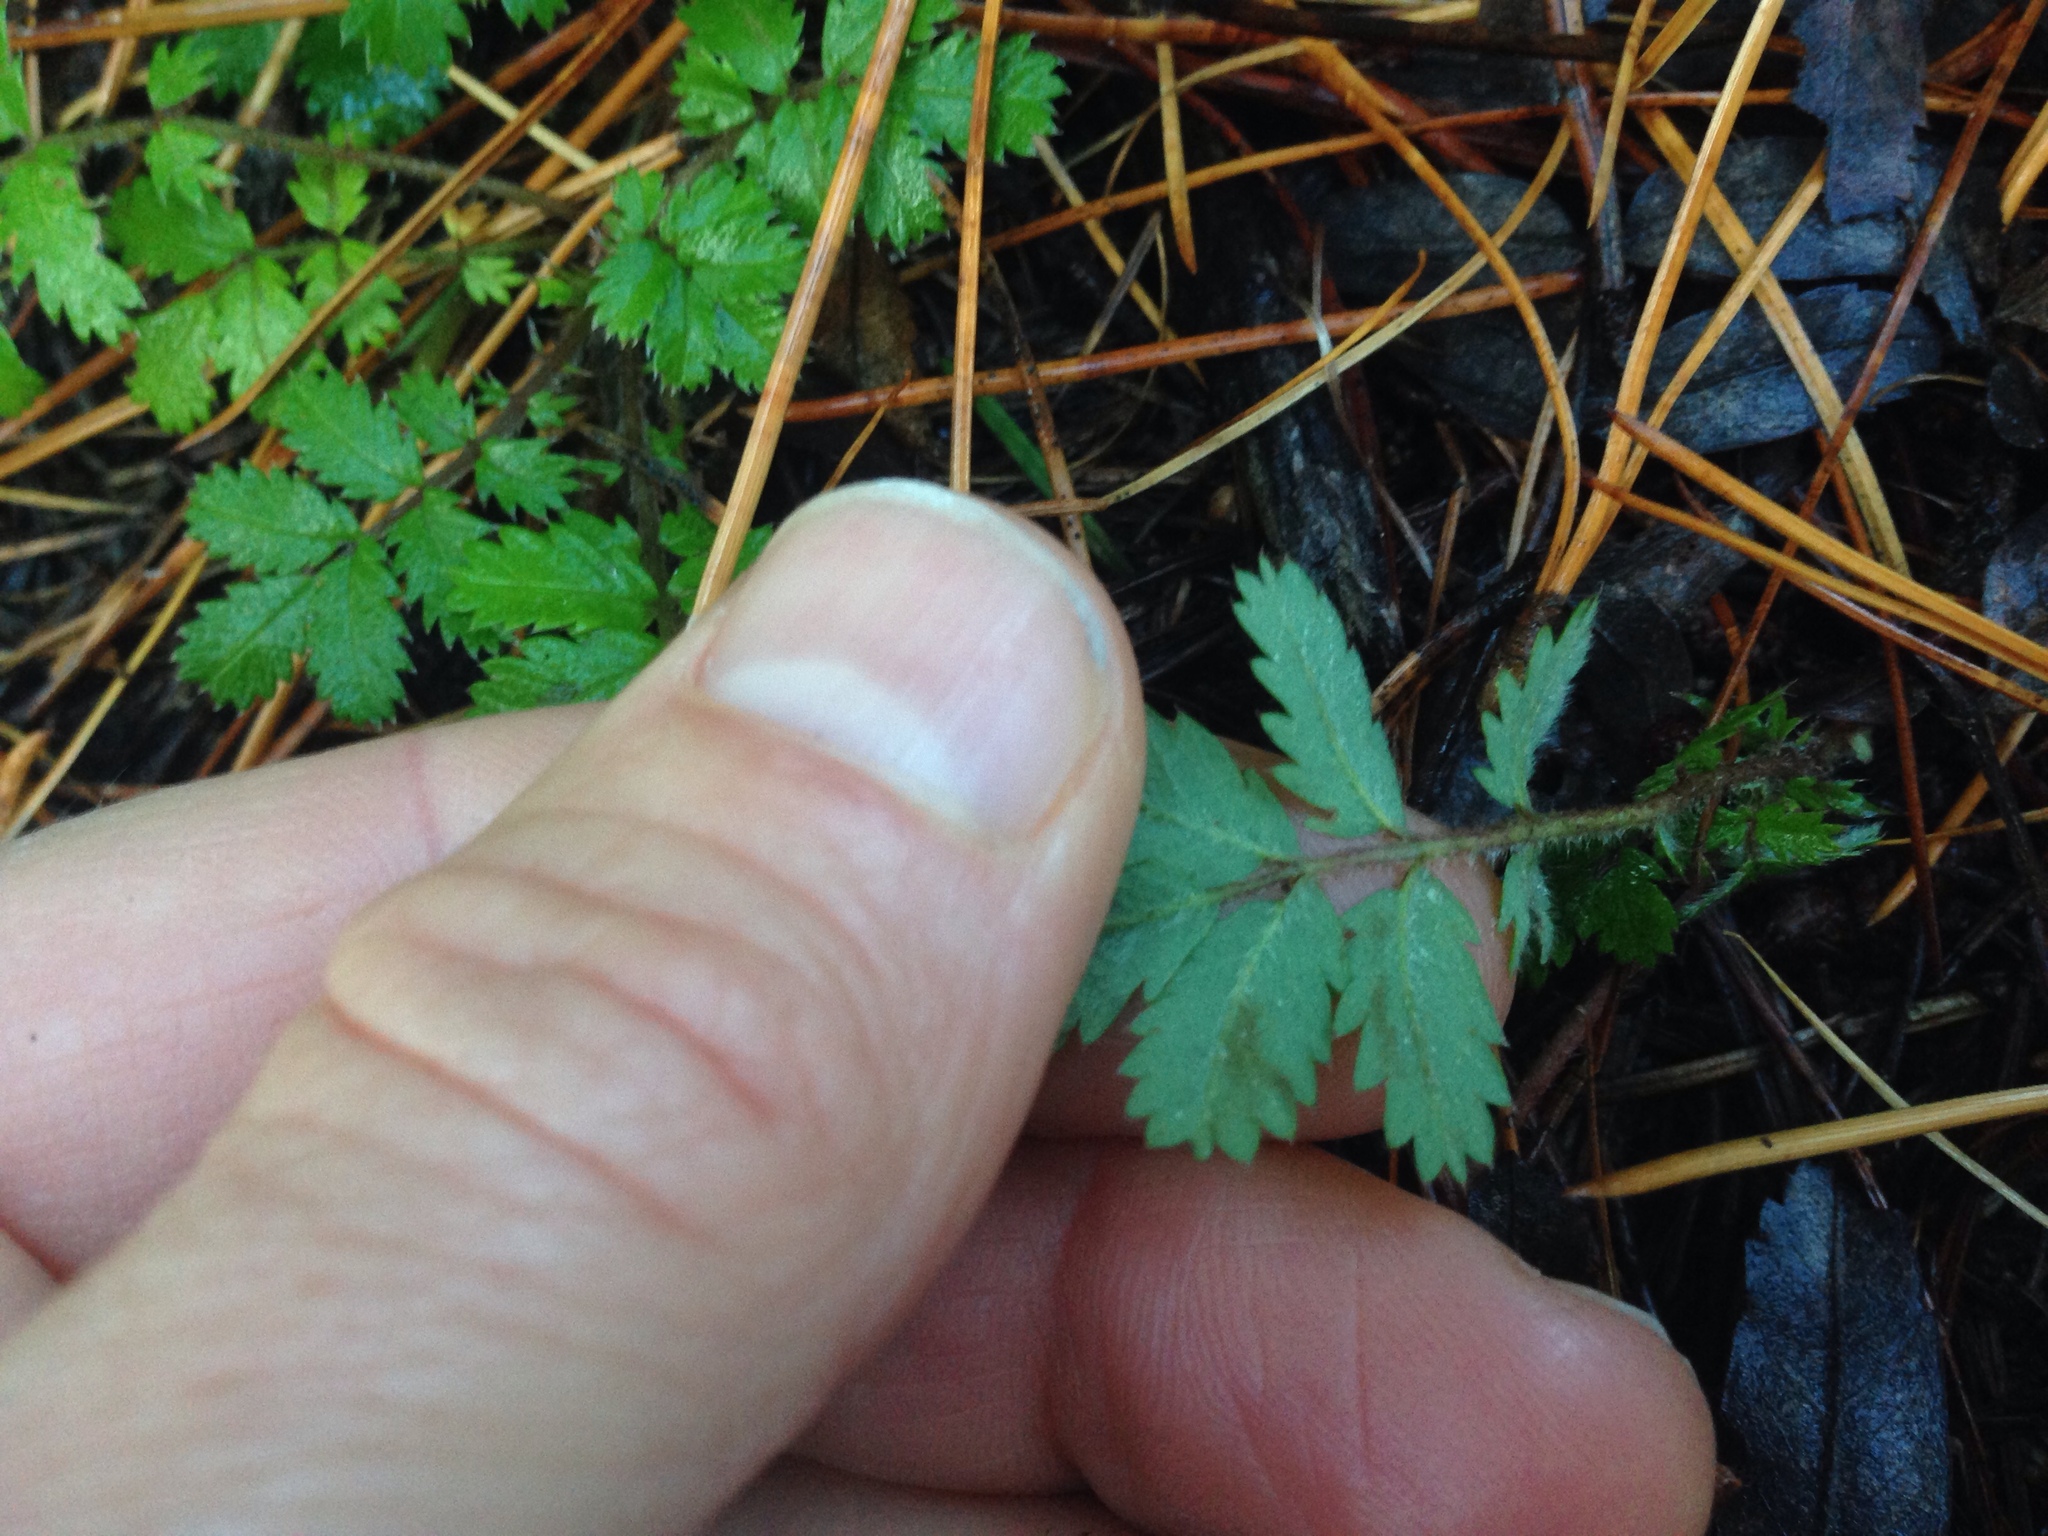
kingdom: Plantae
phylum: Tracheophyta
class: Magnoliopsida
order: Rosales
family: Rosaceae
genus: Acaena
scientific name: Acaena anserinifolia
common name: Bronze pirri-pirri-bur
